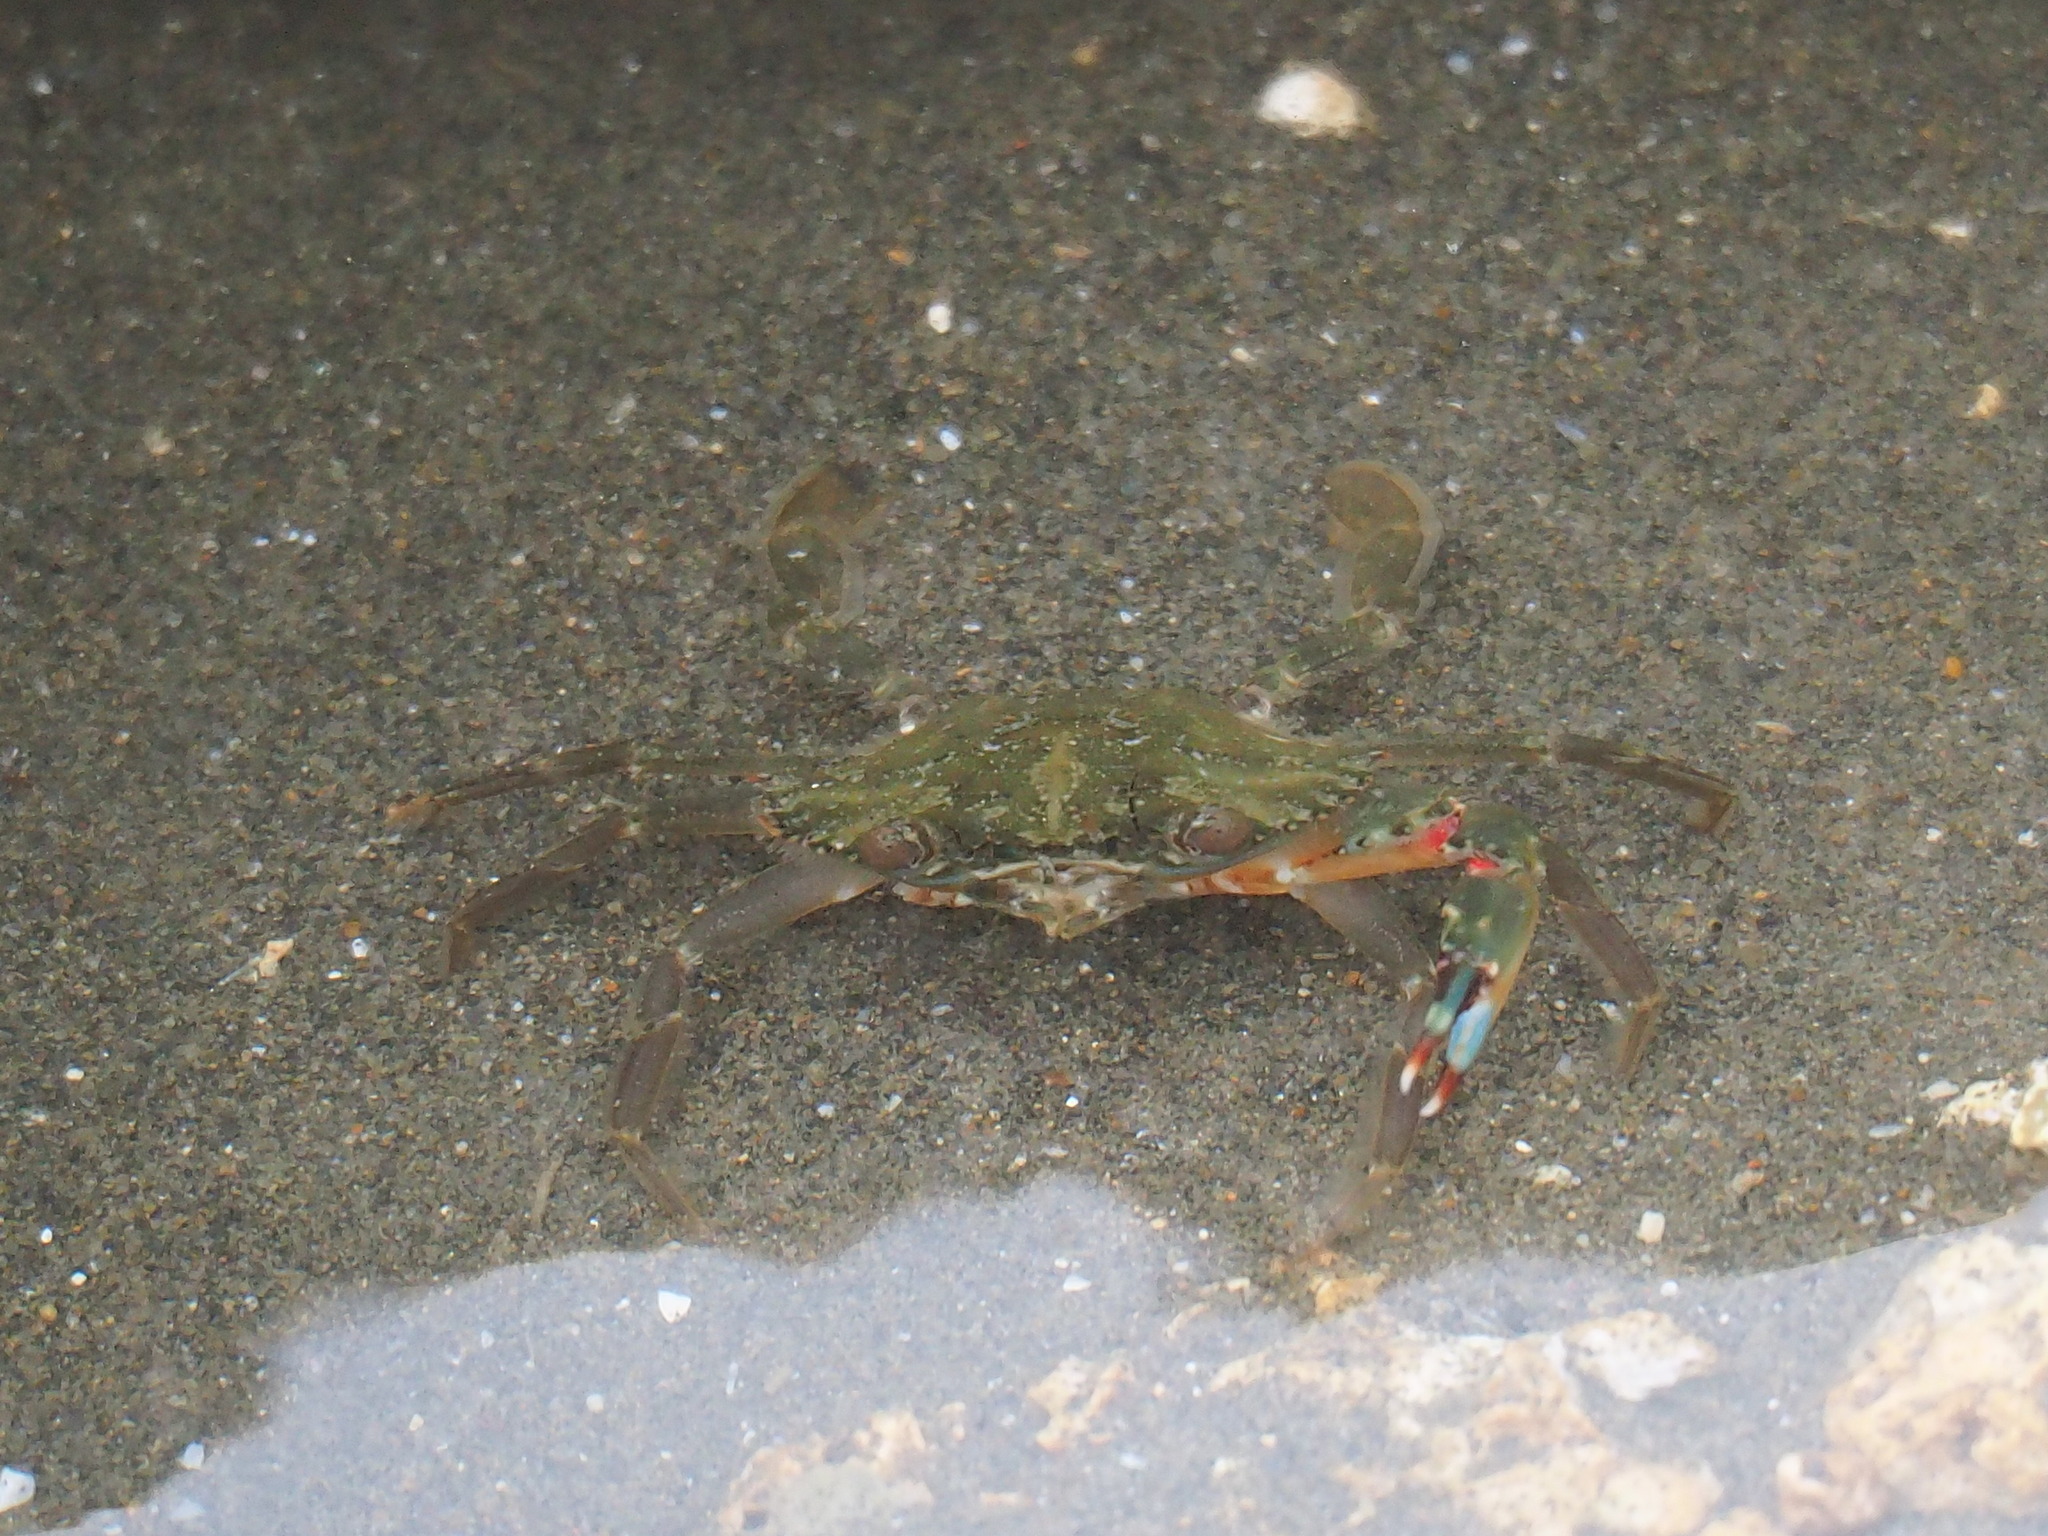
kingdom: Animalia
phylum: Arthropoda
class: Malacostraca
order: Decapoda
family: Portunidae
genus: Charybdis
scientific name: Charybdis orientalis
